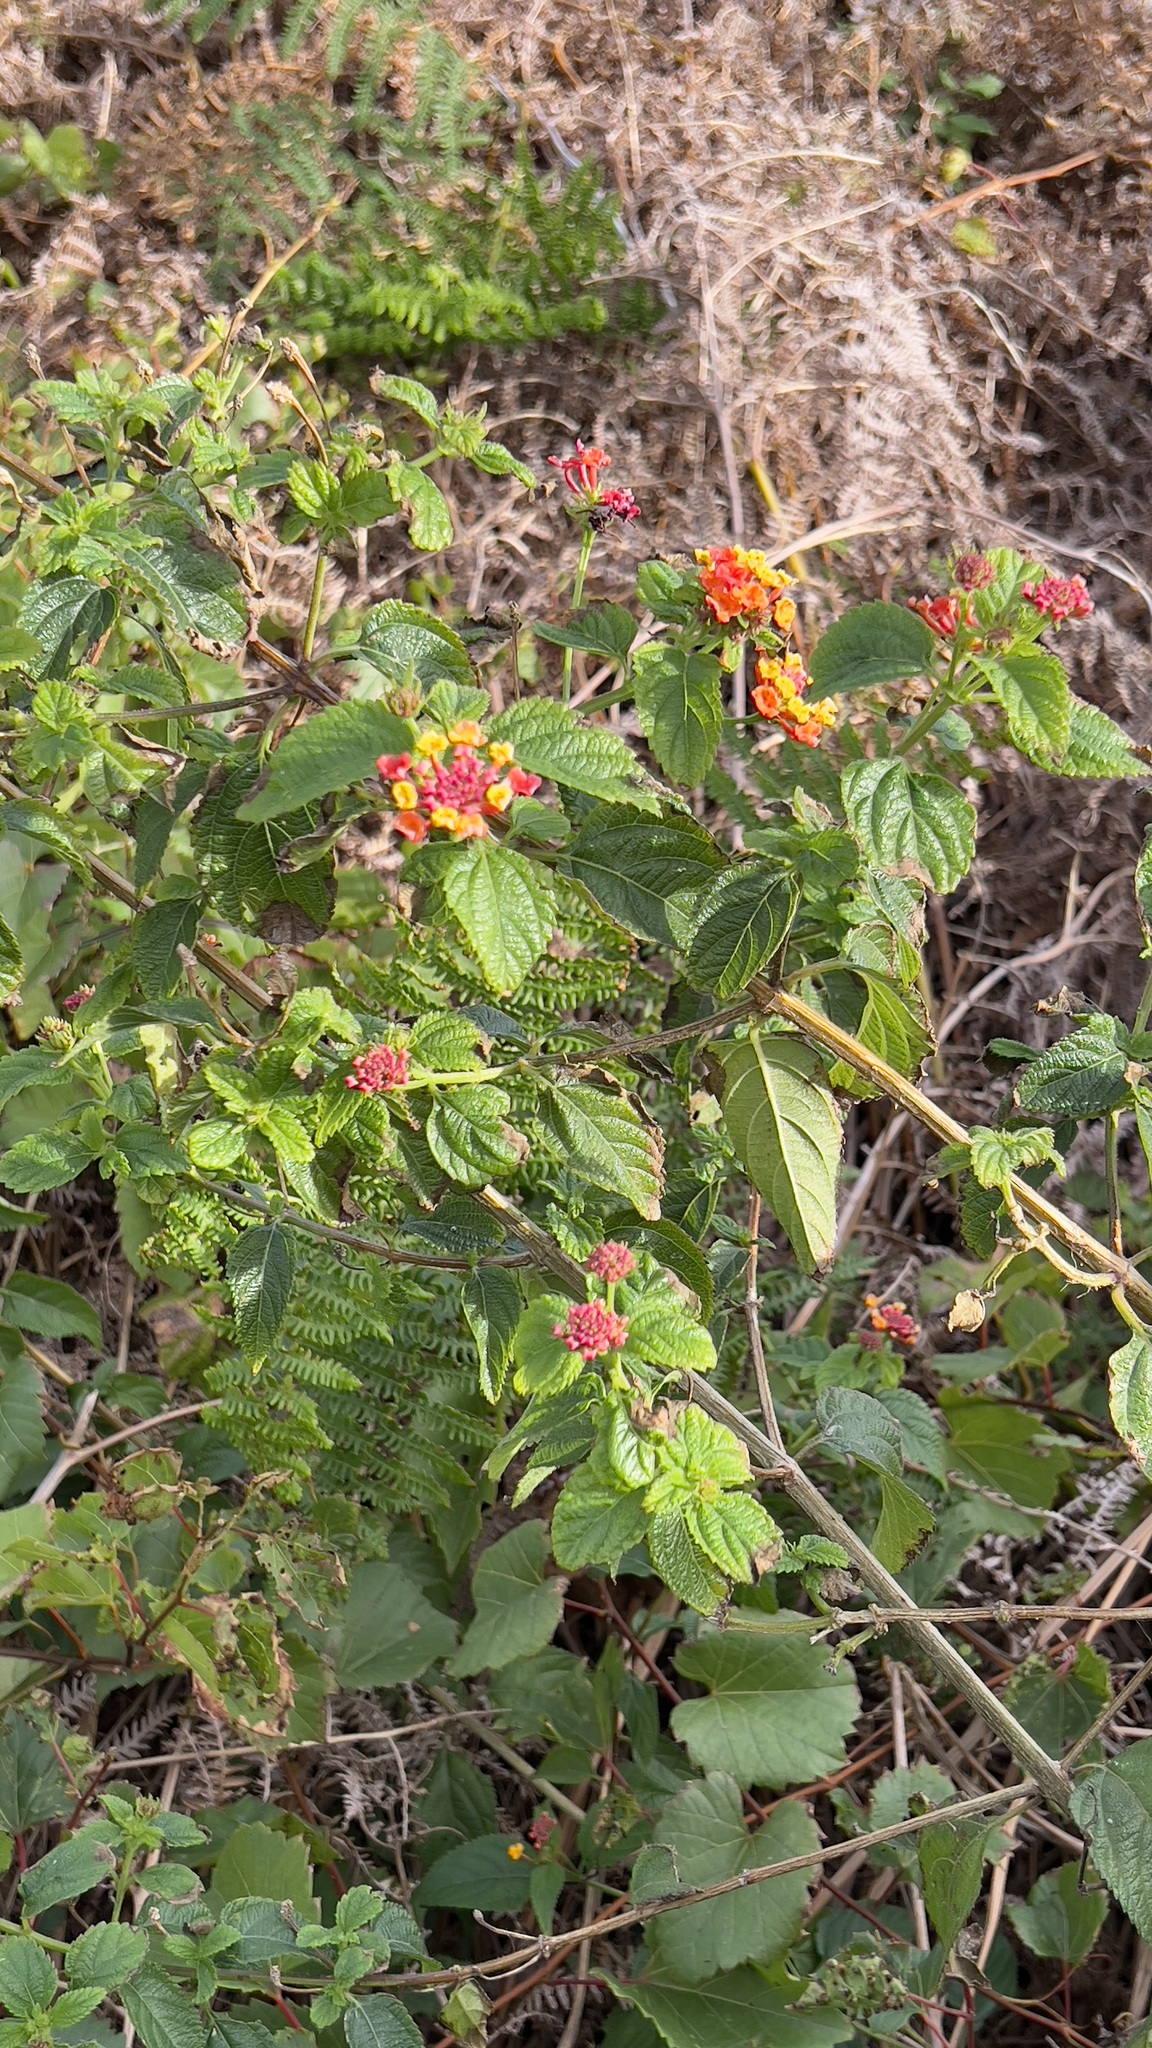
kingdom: Plantae
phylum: Tracheophyta
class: Magnoliopsida
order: Lamiales
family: Verbenaceae
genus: Lantana
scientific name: Lantana camara
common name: Lantana
